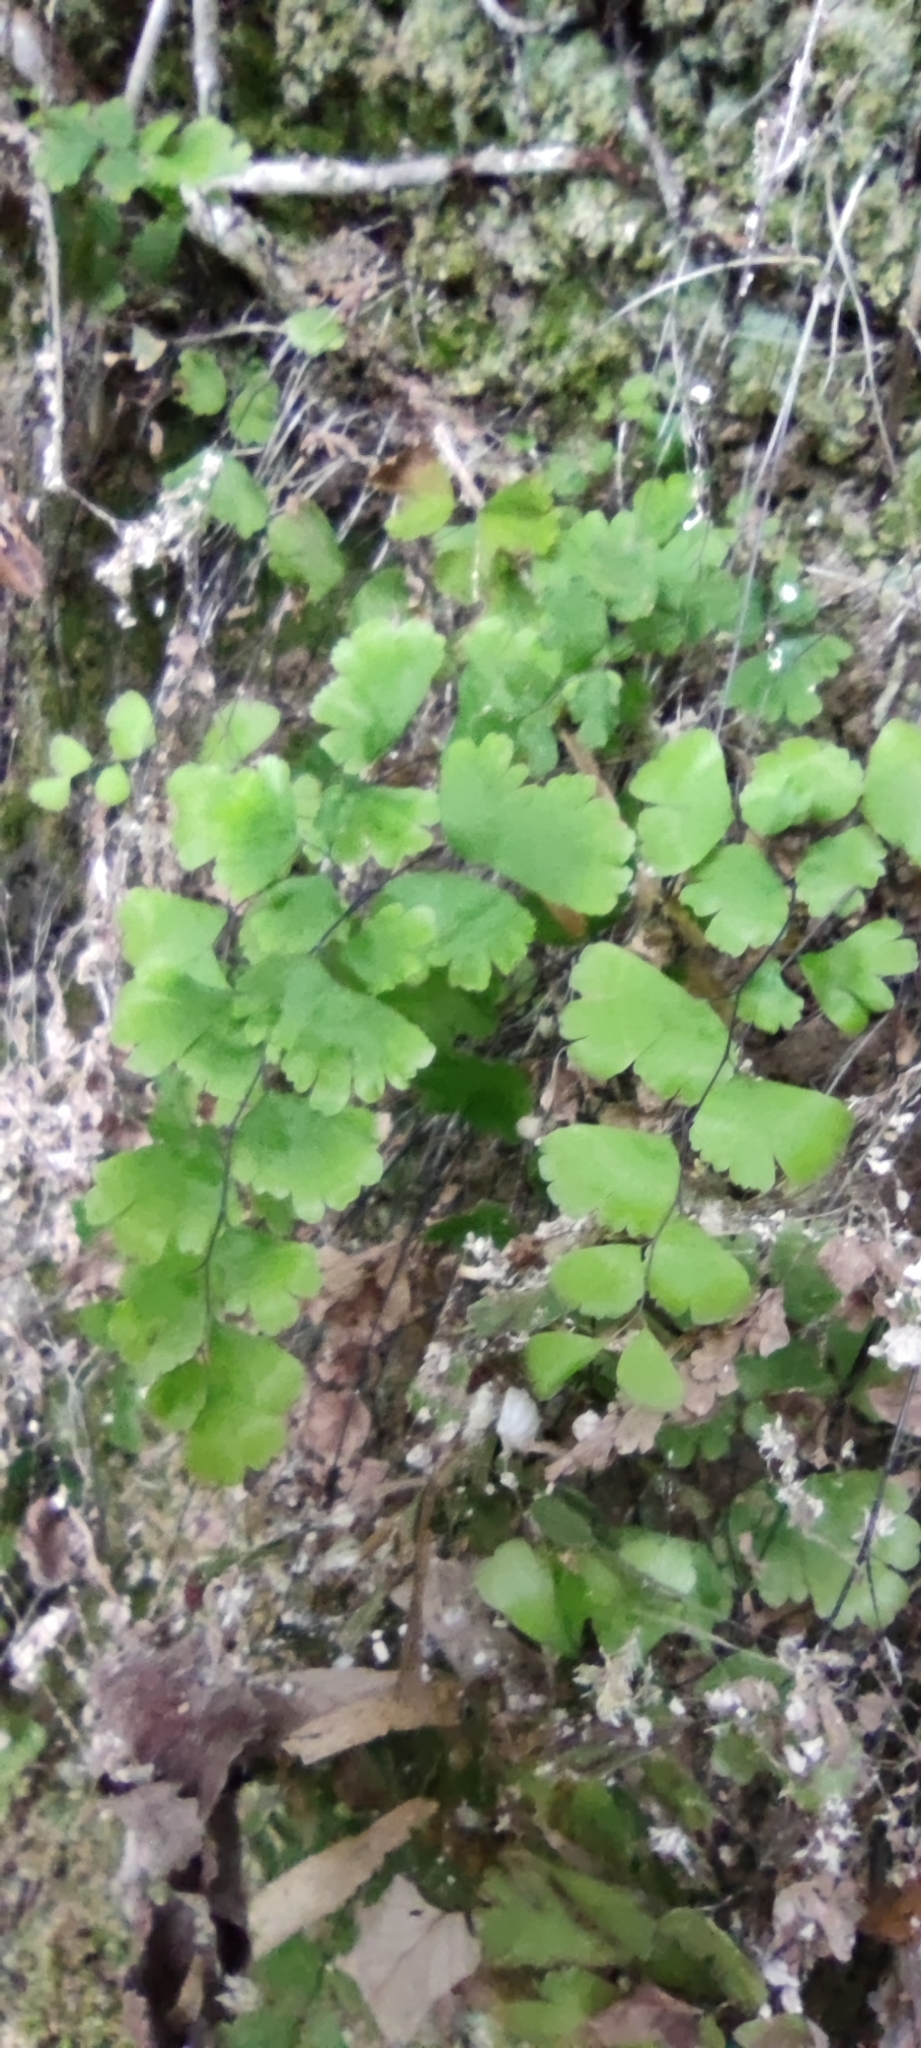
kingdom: Plantae
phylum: Tracheophyta
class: Polypodiopsida
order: Polypodiales
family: Pteridaceae
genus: Adiantum
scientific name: Adiantum capillus-veneris
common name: Maidenhair fern
